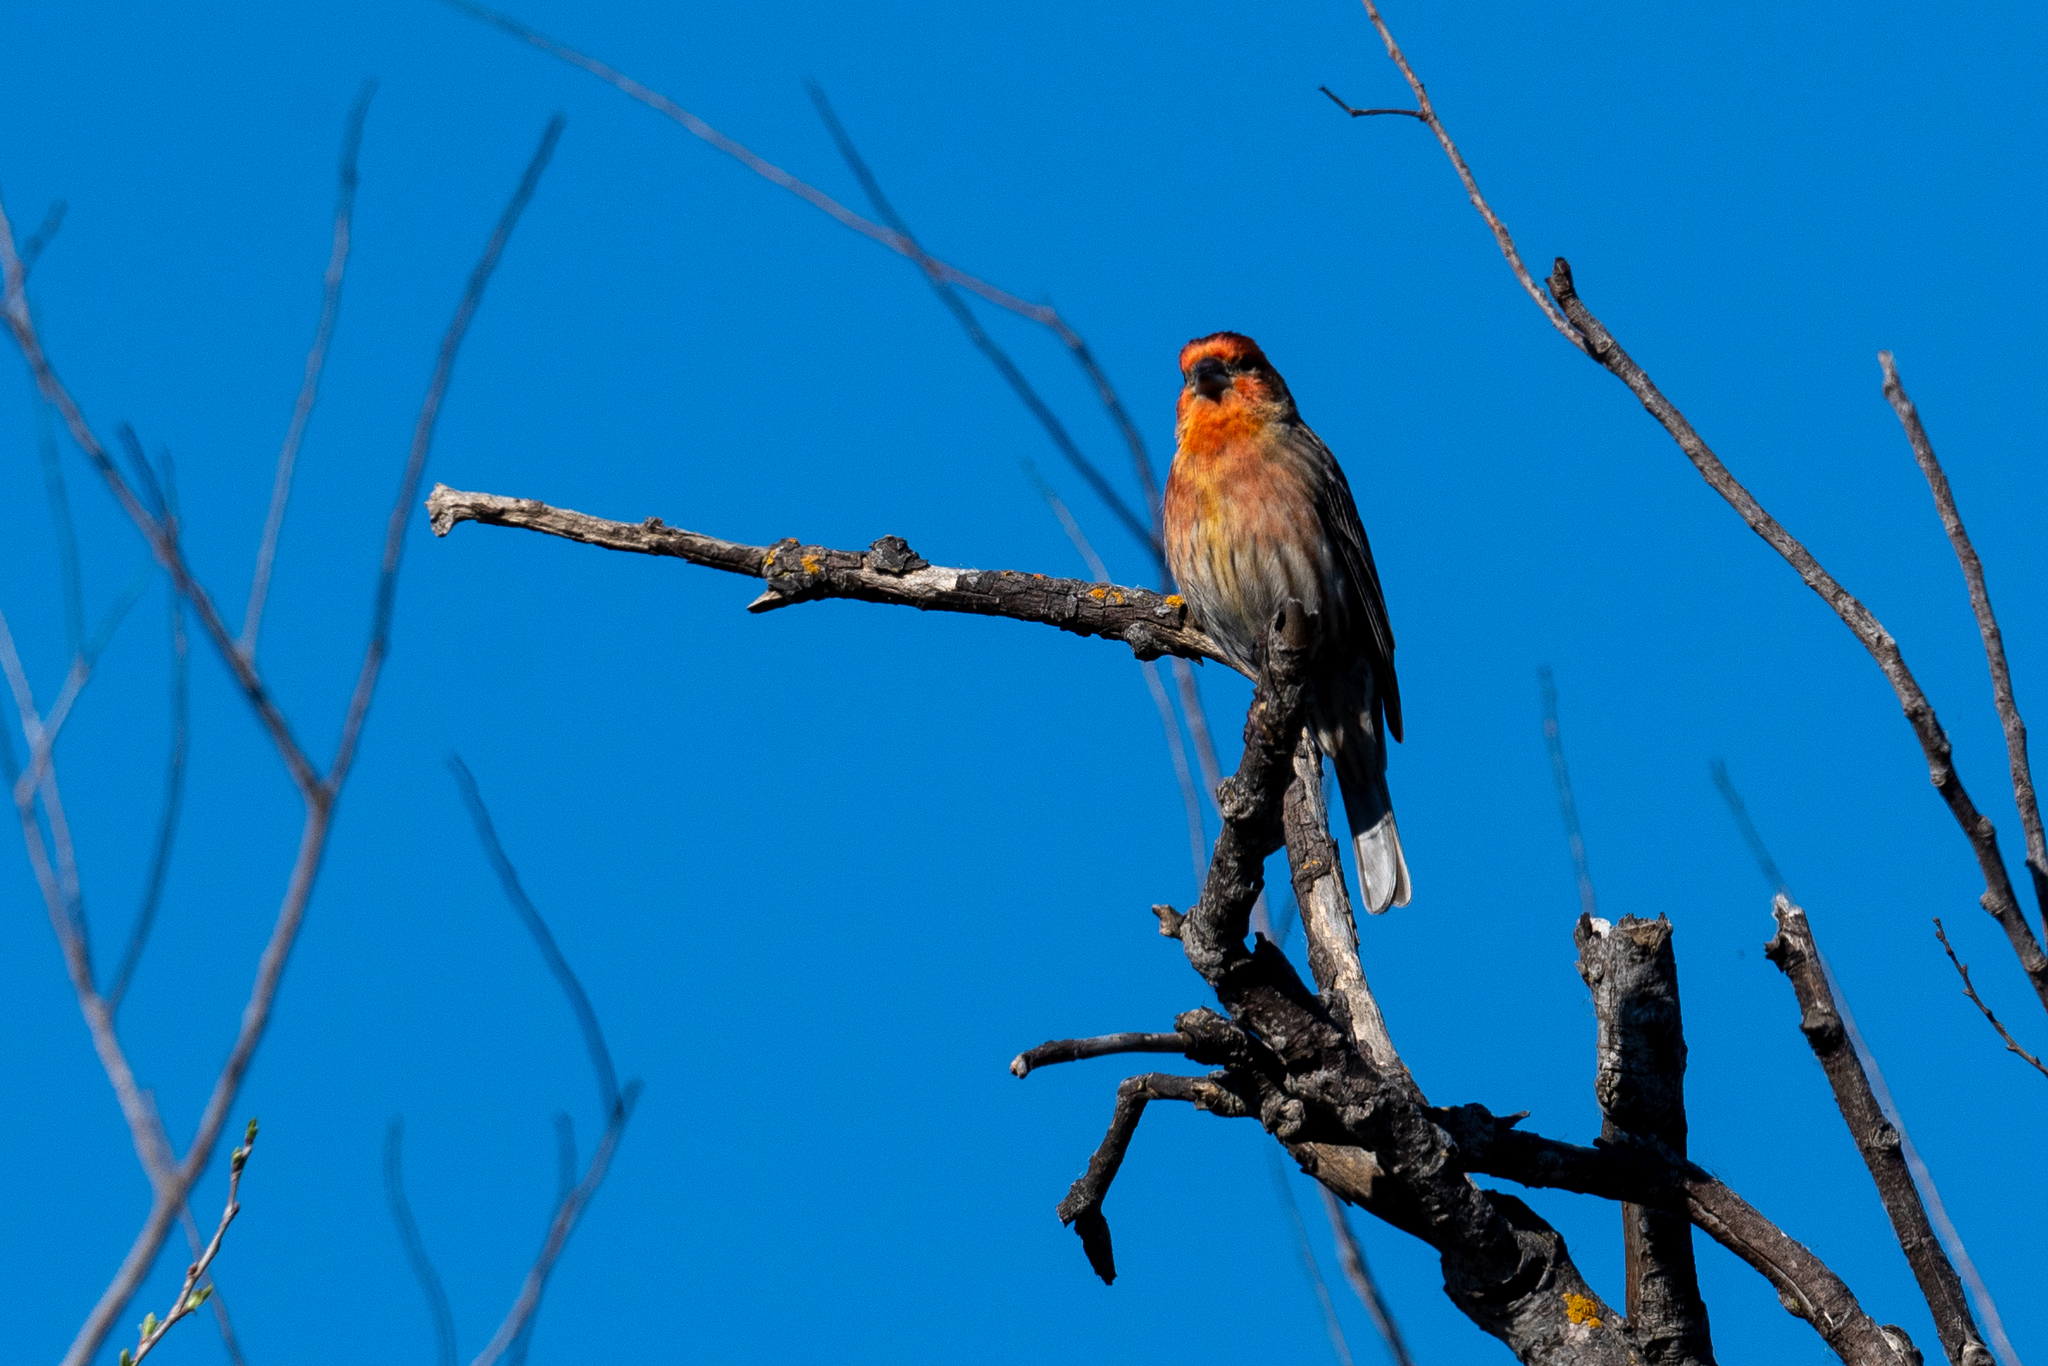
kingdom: Animalia
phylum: Chordata
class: Aves
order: Passeriformes
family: Fringillidae
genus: Haemorhous
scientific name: Haemorhous mexicanus
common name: House finch
